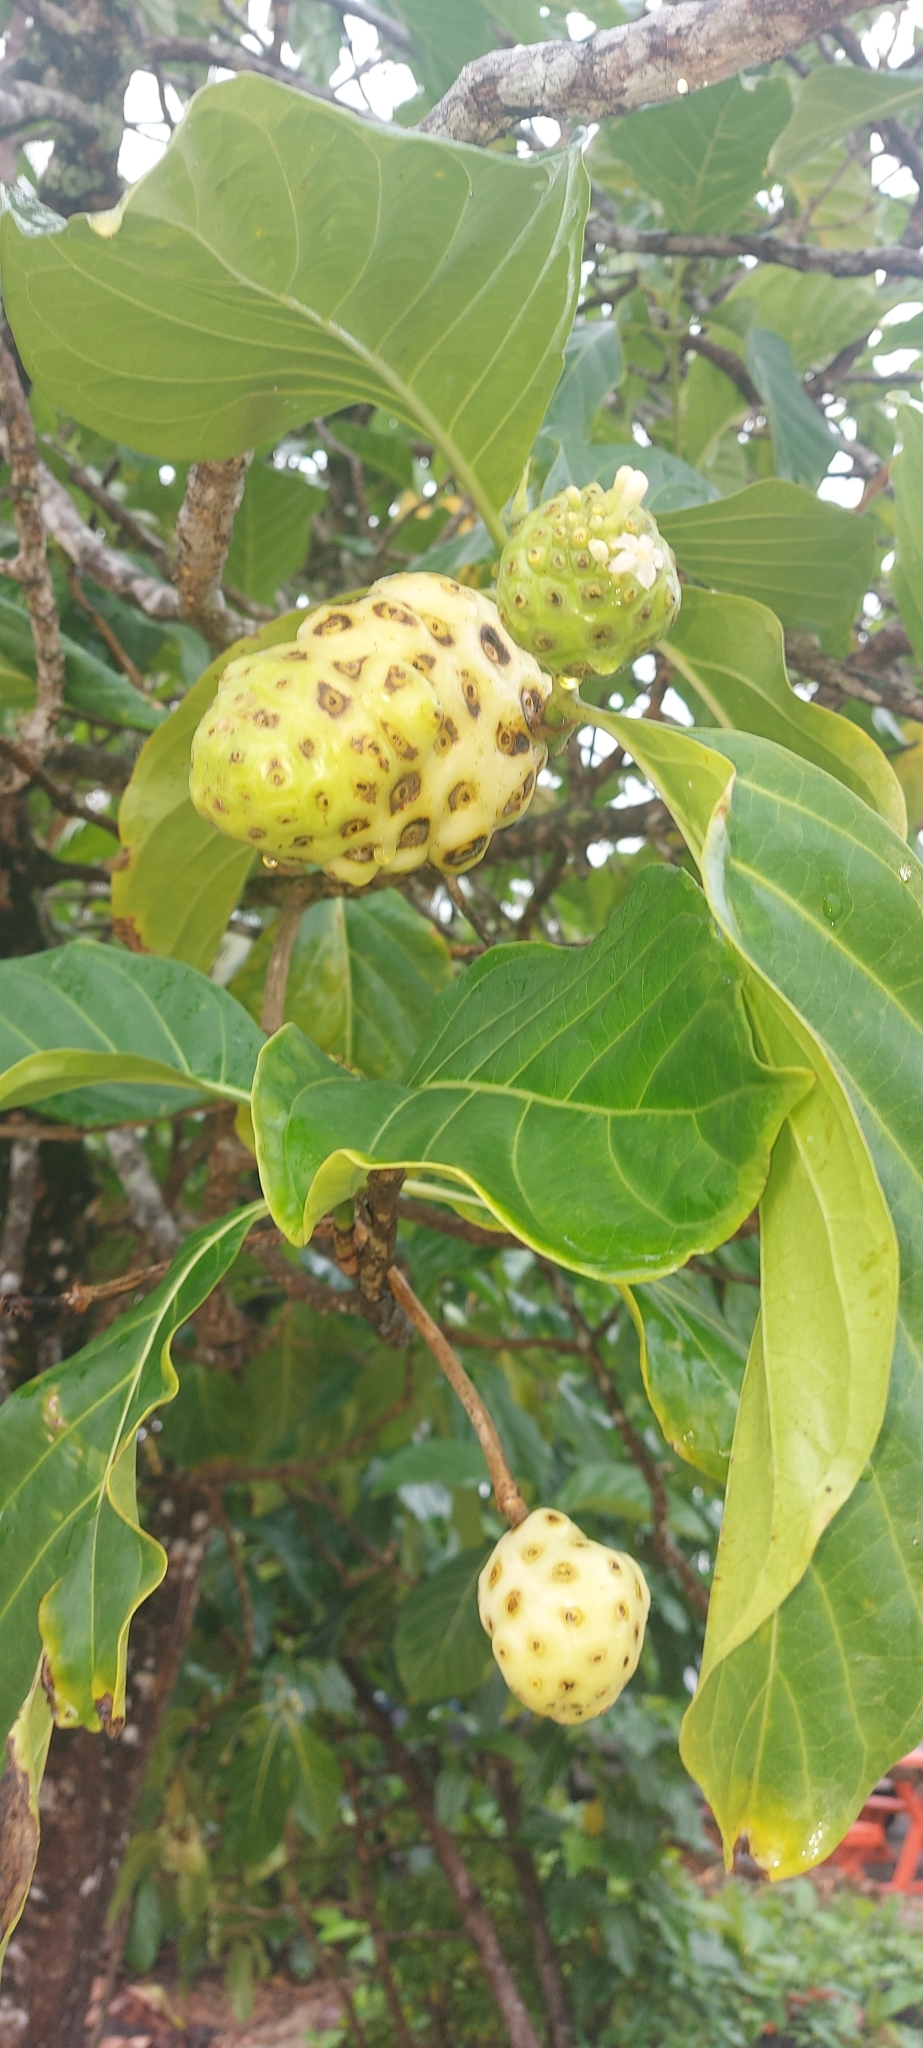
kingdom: Plantae
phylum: Tracheophyta
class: Magnoliopsida
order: Gentianales
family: Rubiaceae
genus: Morinda
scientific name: Morinda citrifolia
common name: Indian-mulberry
